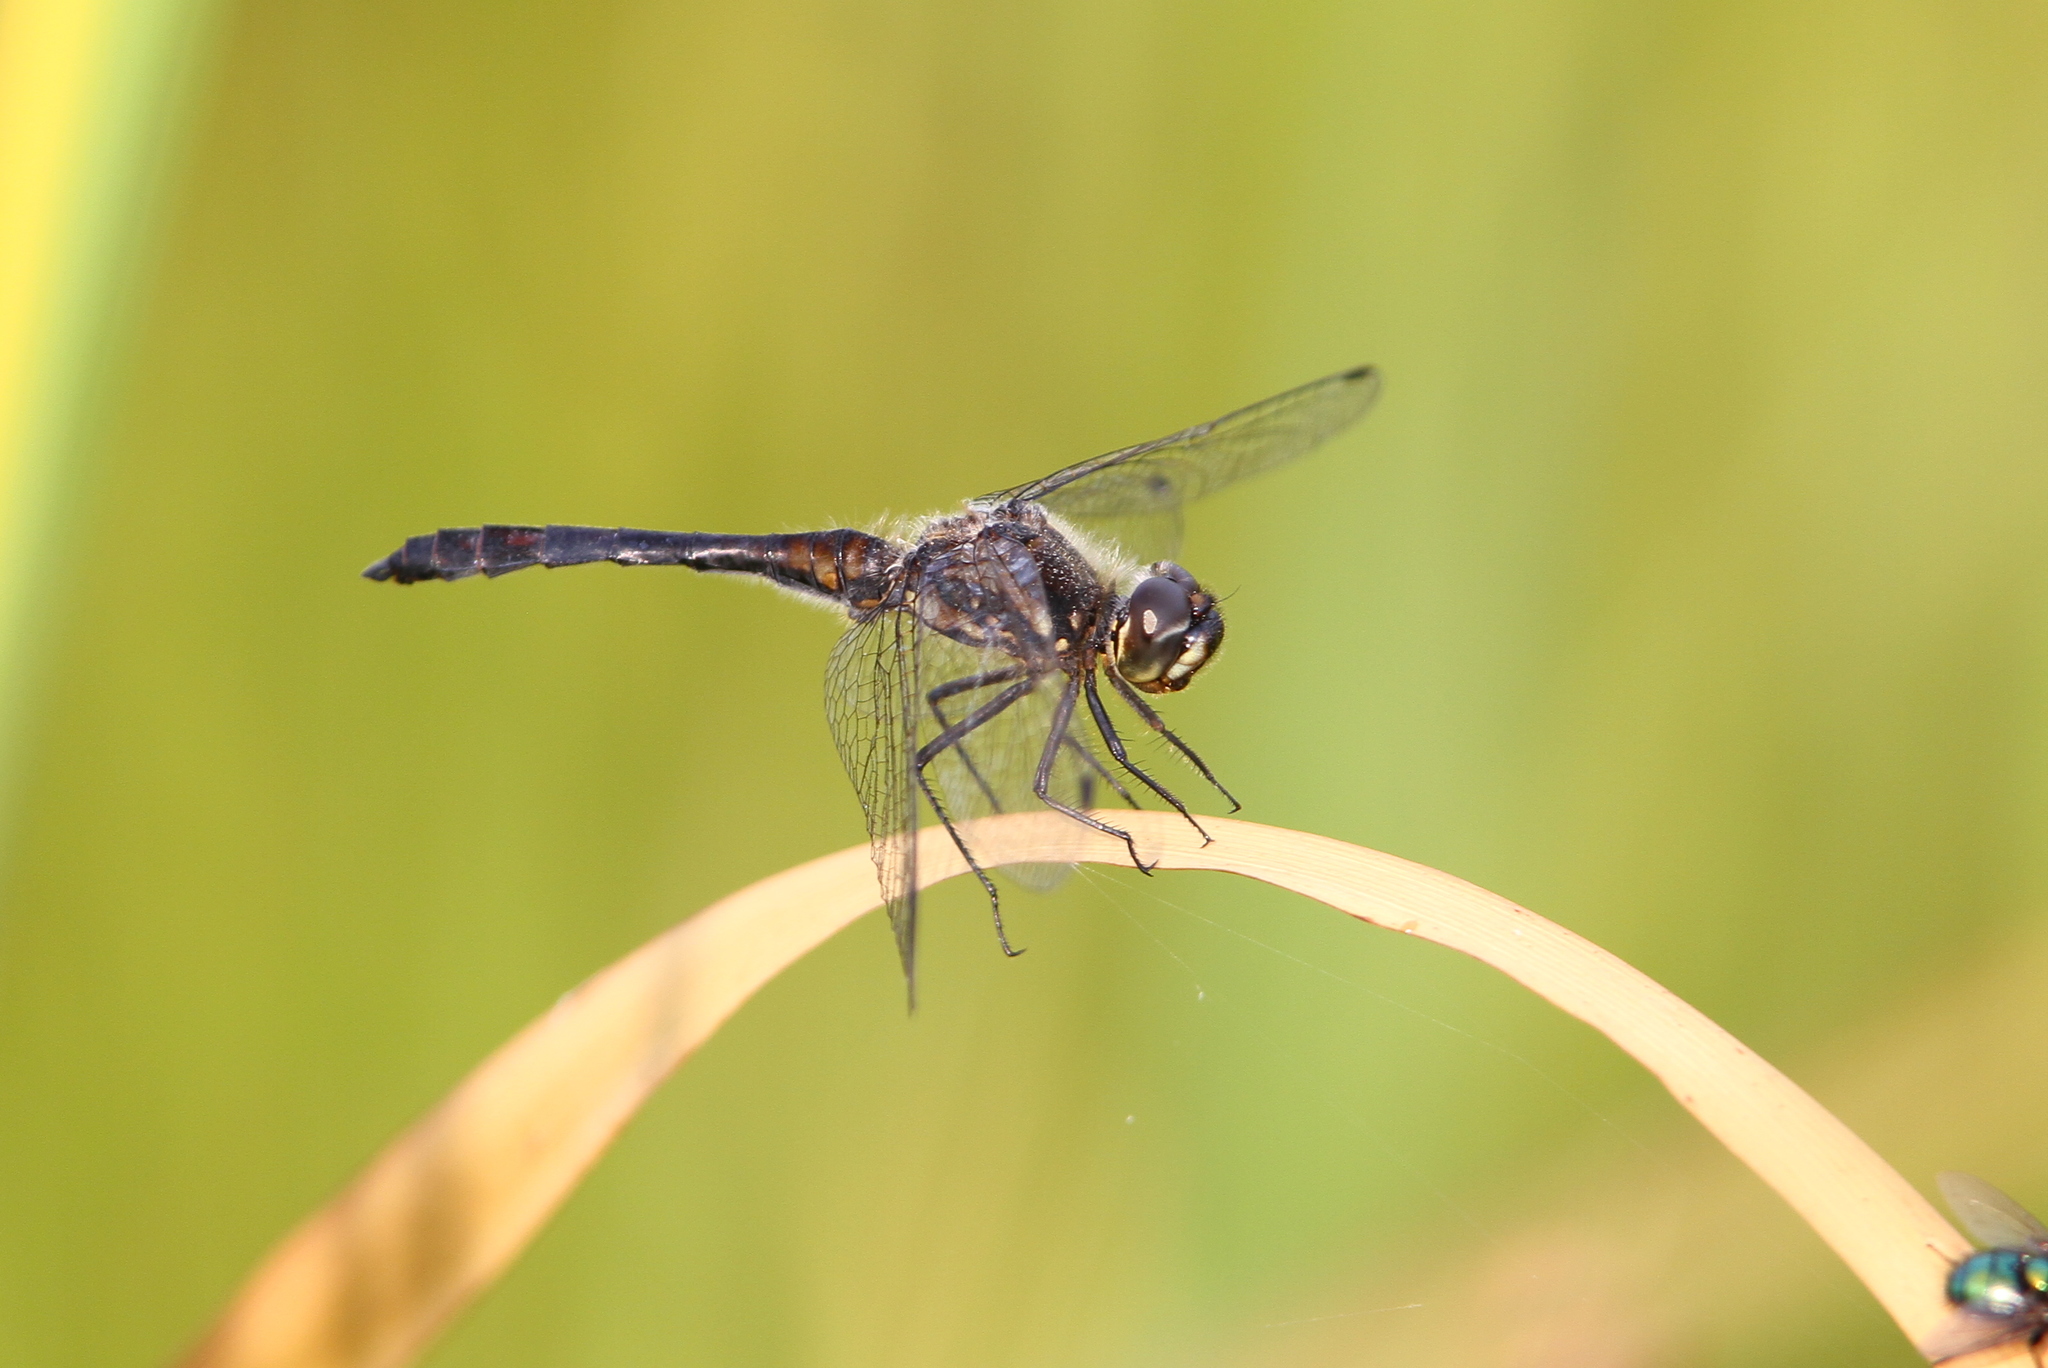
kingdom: Animalia
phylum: Arthropoda
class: Insecta
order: Odonata
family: Libellulidae
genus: Sympetrum
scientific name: Sympetrum danae
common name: Black darter
